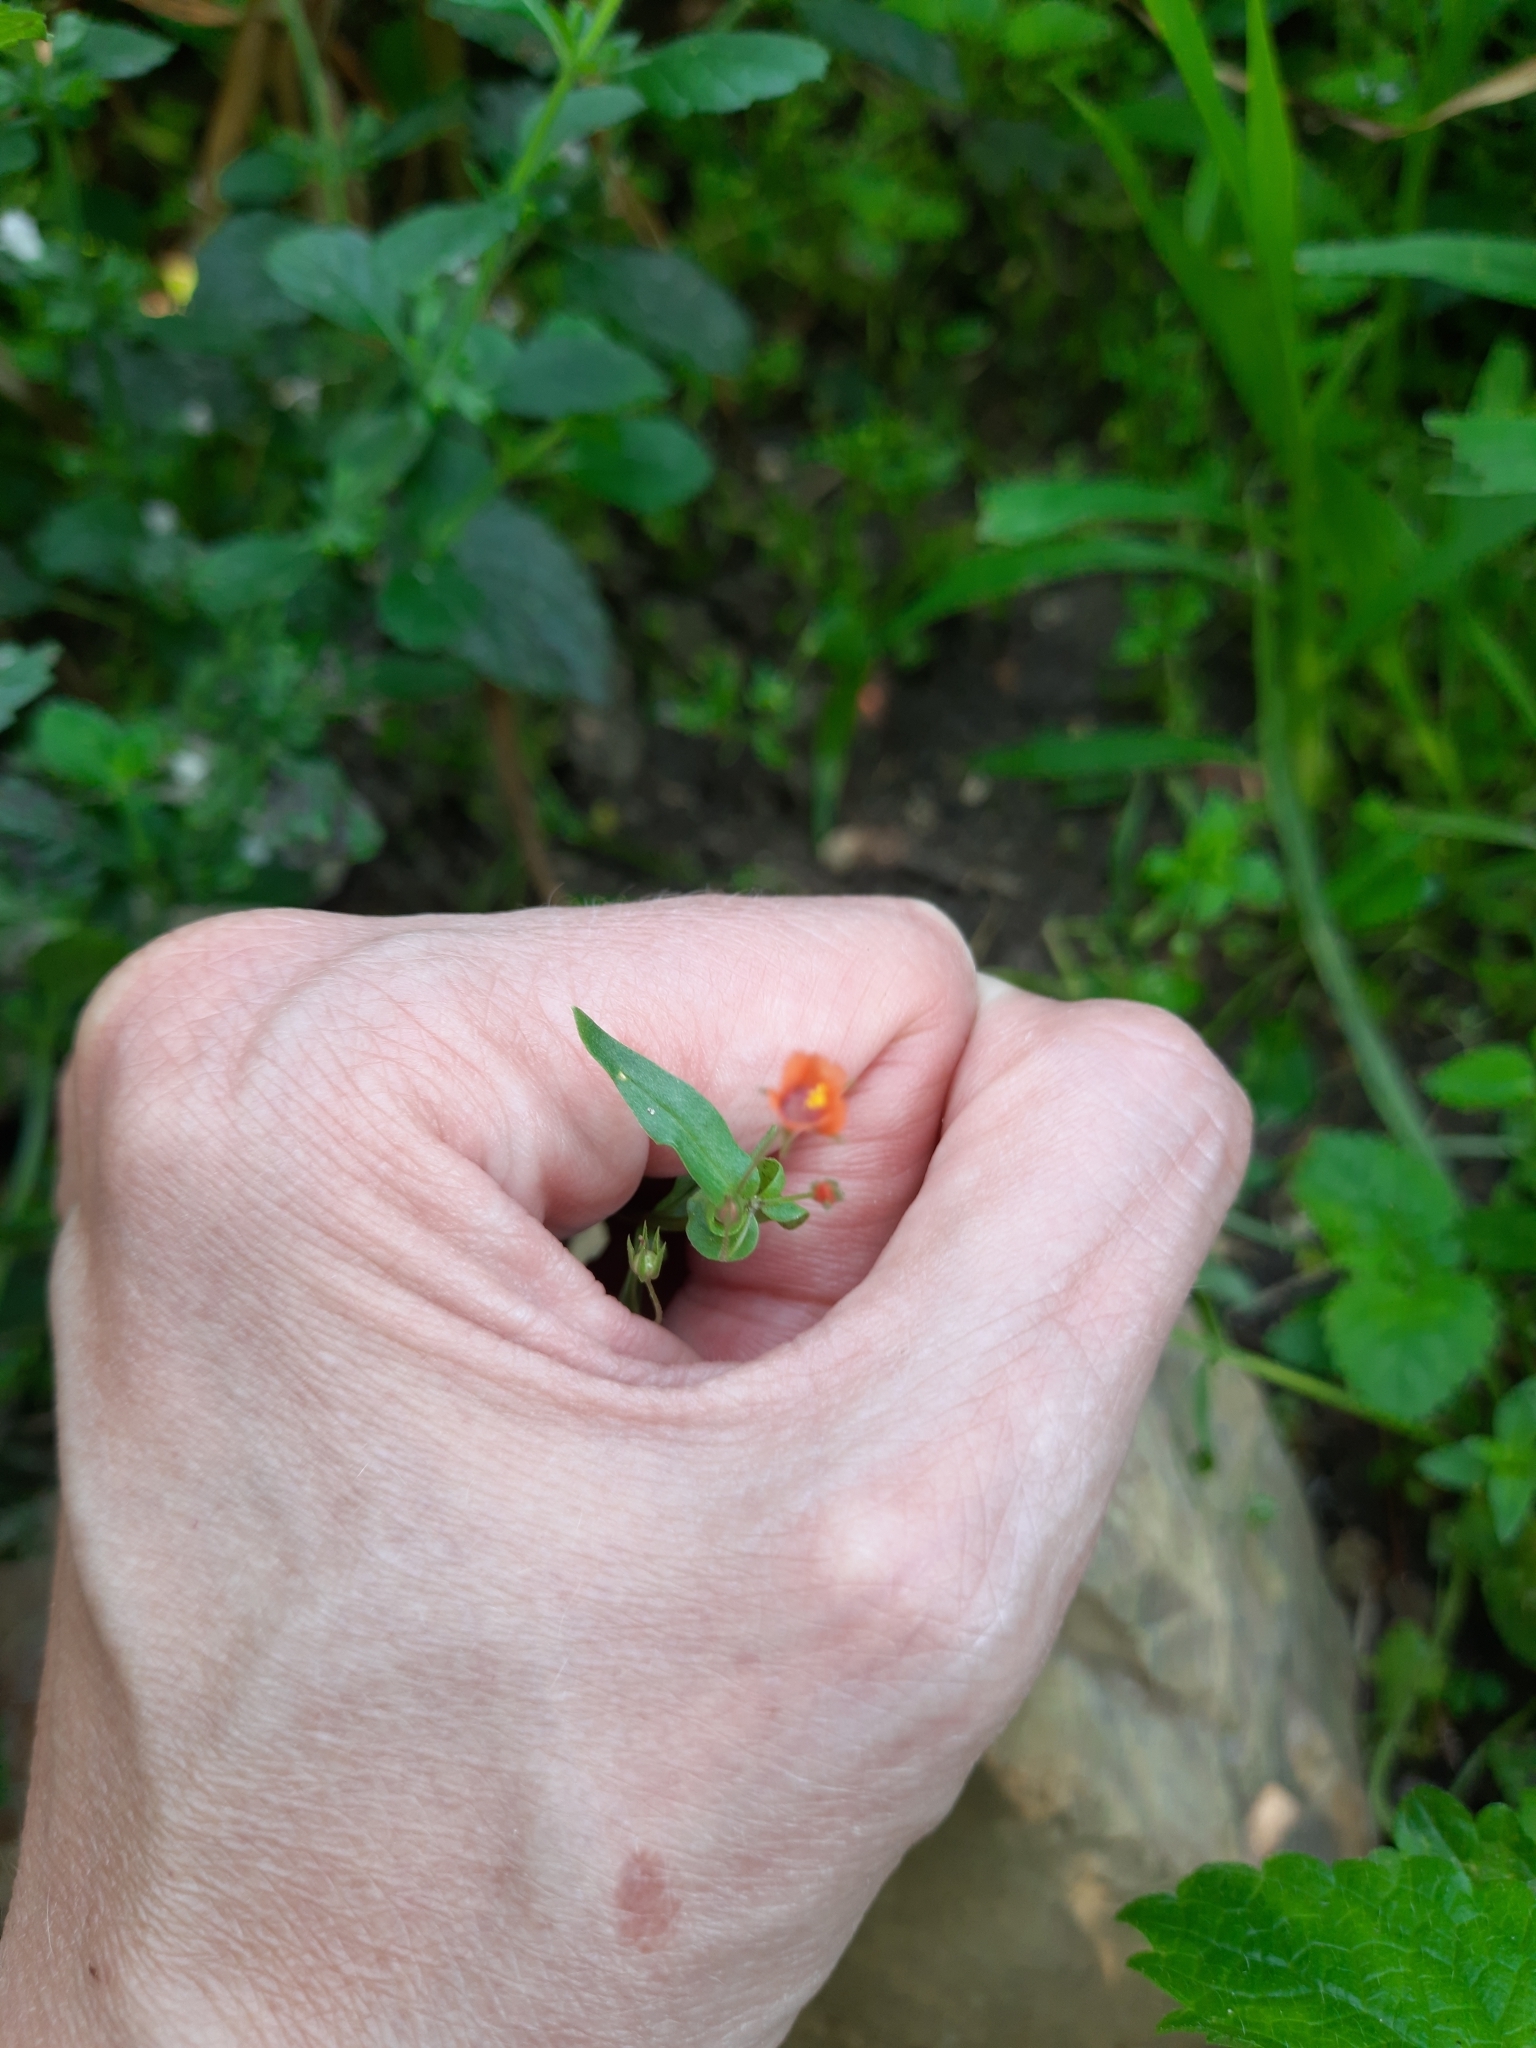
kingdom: Plantae
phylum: Tracheophyta
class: Magnoliopsida
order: Ericales
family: Primulaceae
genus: Lysimachia
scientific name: Lysimachia arvensis
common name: Scarlet pimpernel
